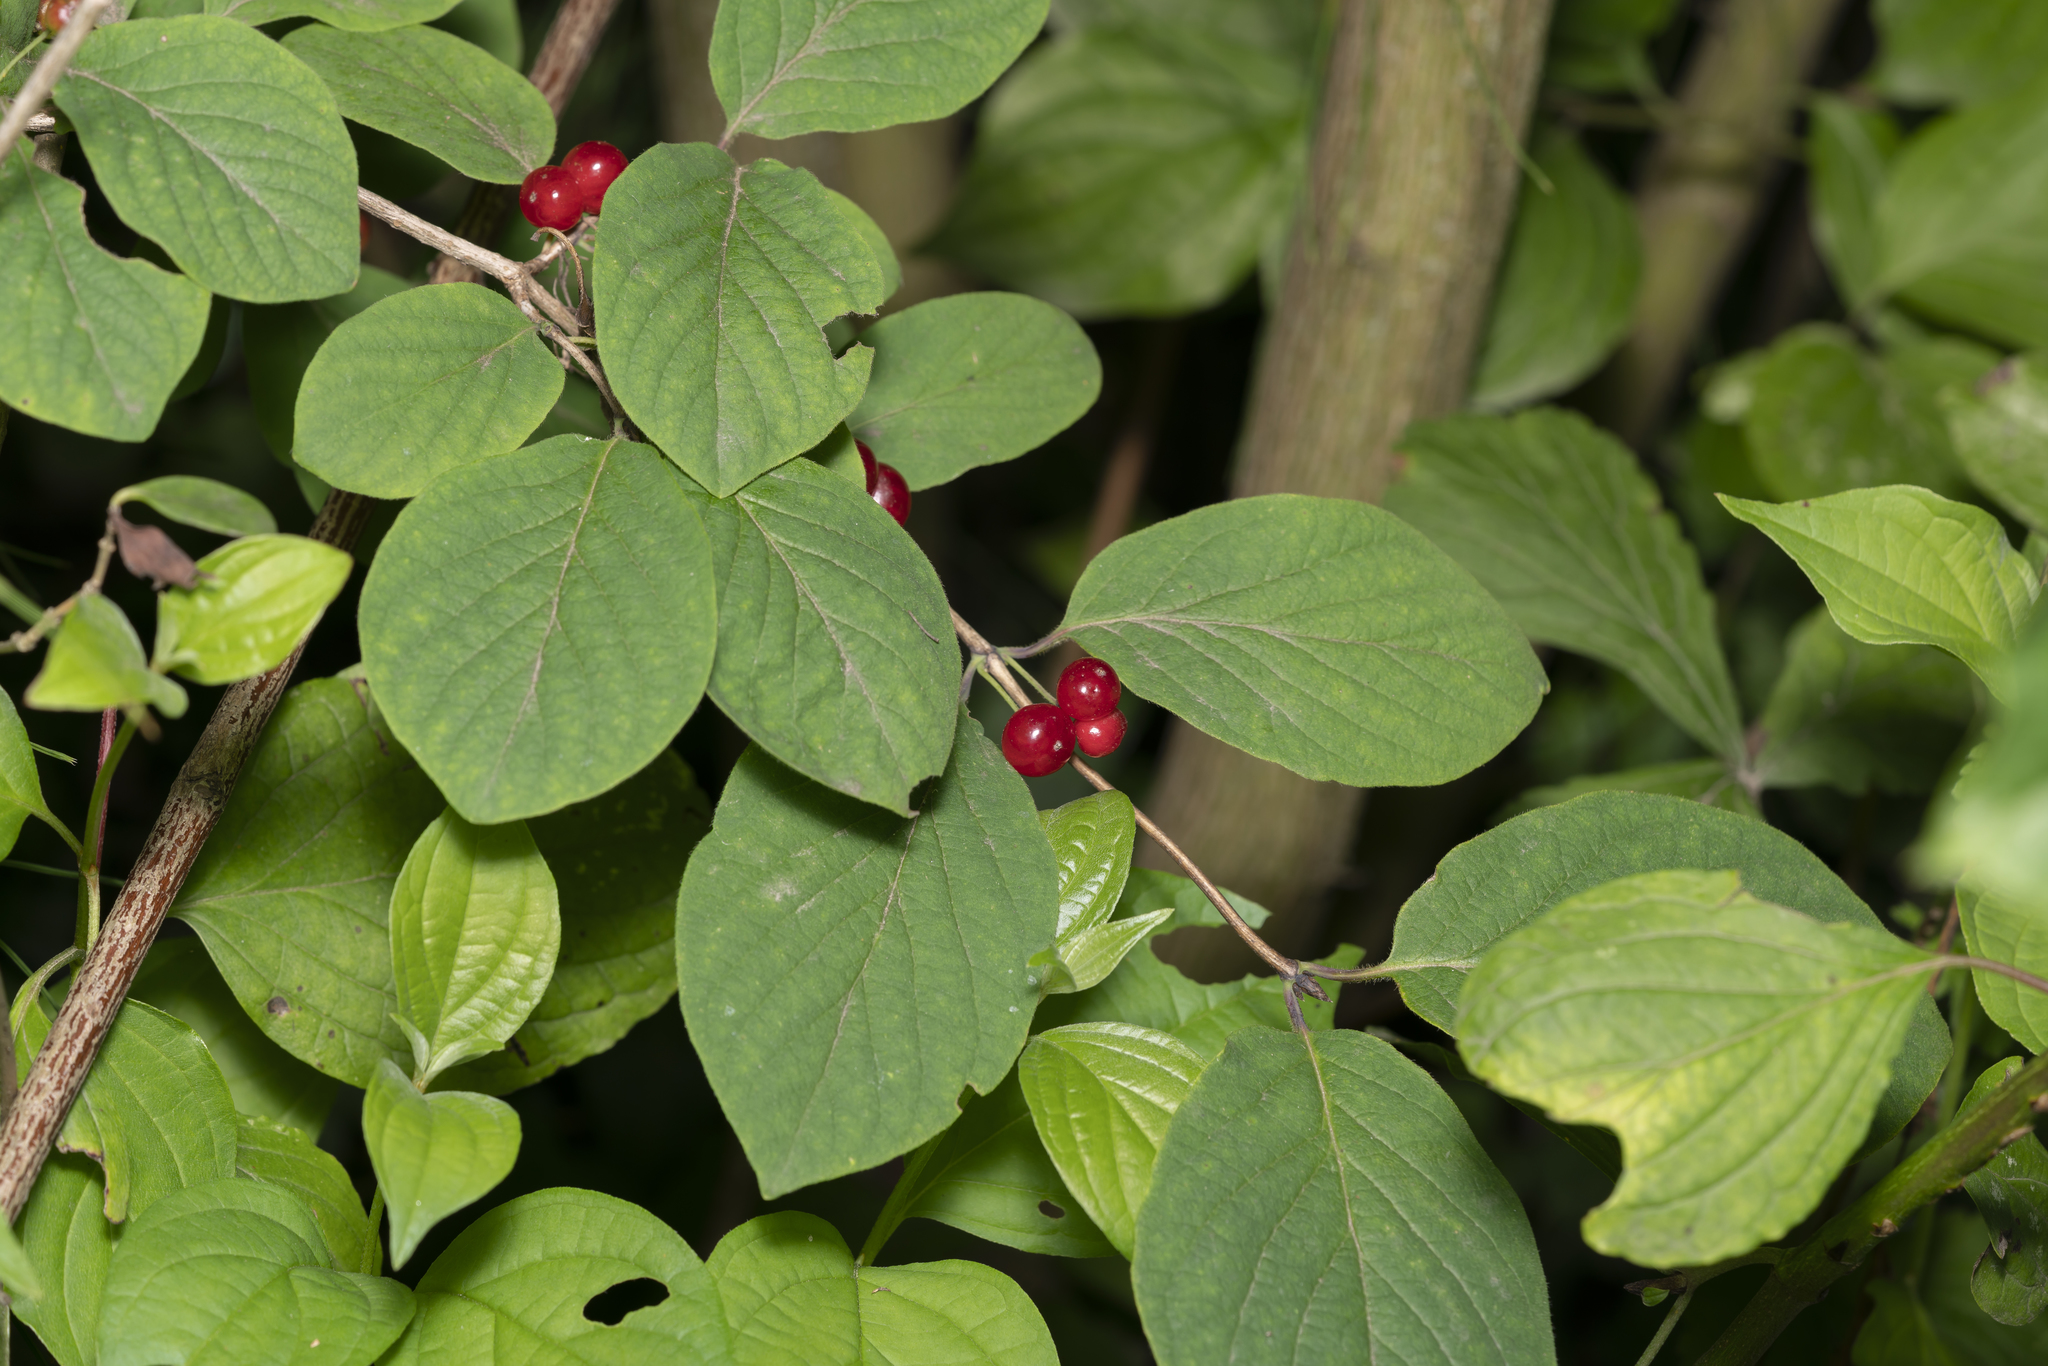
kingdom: Plantae
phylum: Tracheophyta
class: Magnoliopsida
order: Dipsacales
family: Caprifoliaceae
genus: Lonicera
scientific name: Lonicera xylosteum
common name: Fly honeysuckle
